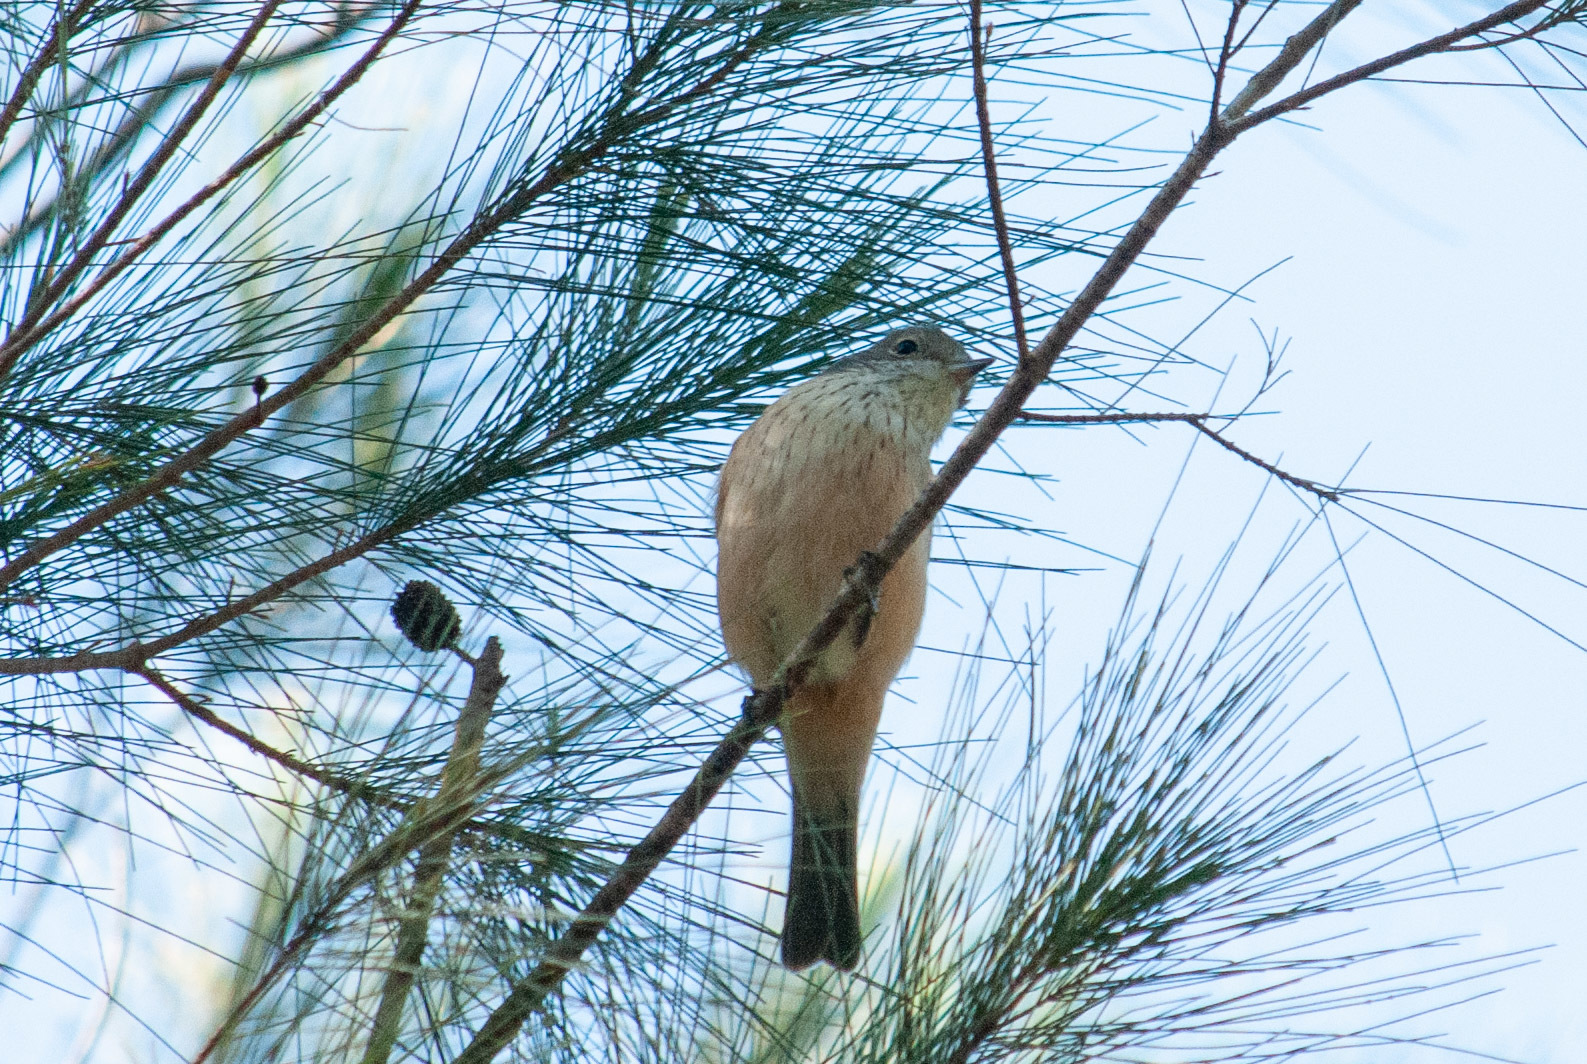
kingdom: Animalia
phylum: Chordata
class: Aves
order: Passeriformes
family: Pachycephalidae
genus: Pachycephala
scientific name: Pachycephala rufiventris
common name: Rufous whistler
